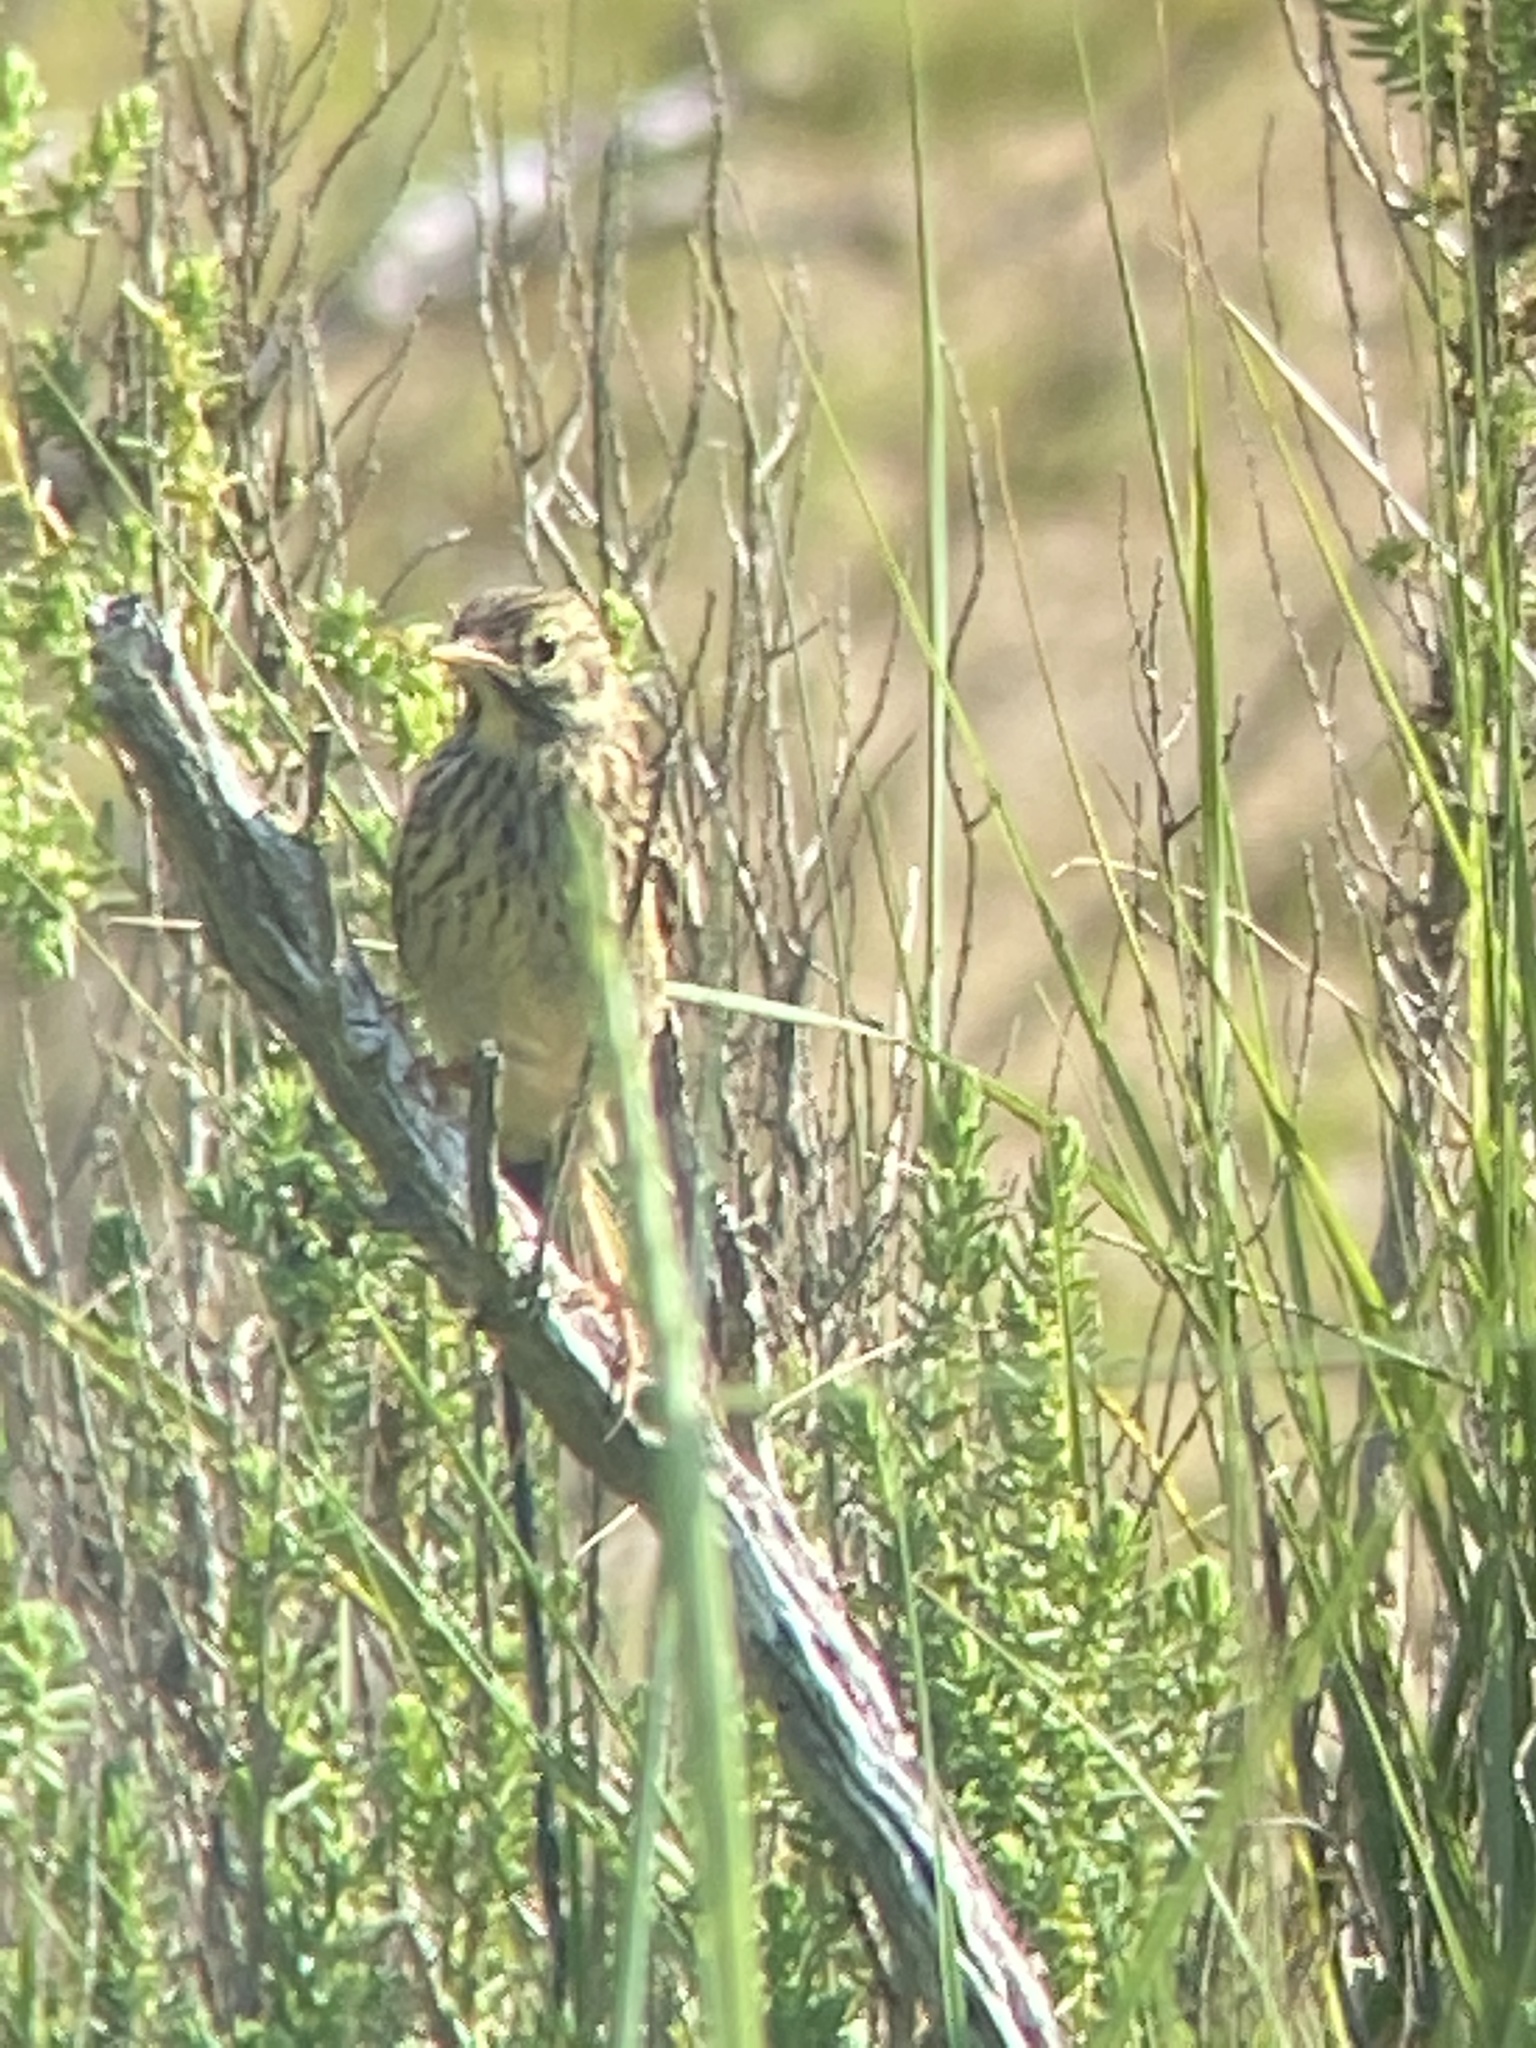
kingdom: Animalia
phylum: Chordata
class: Aves
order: Passeriformes
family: Motacillidae
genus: Anthus
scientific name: Anthus pratensis
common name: Meadow pipit
